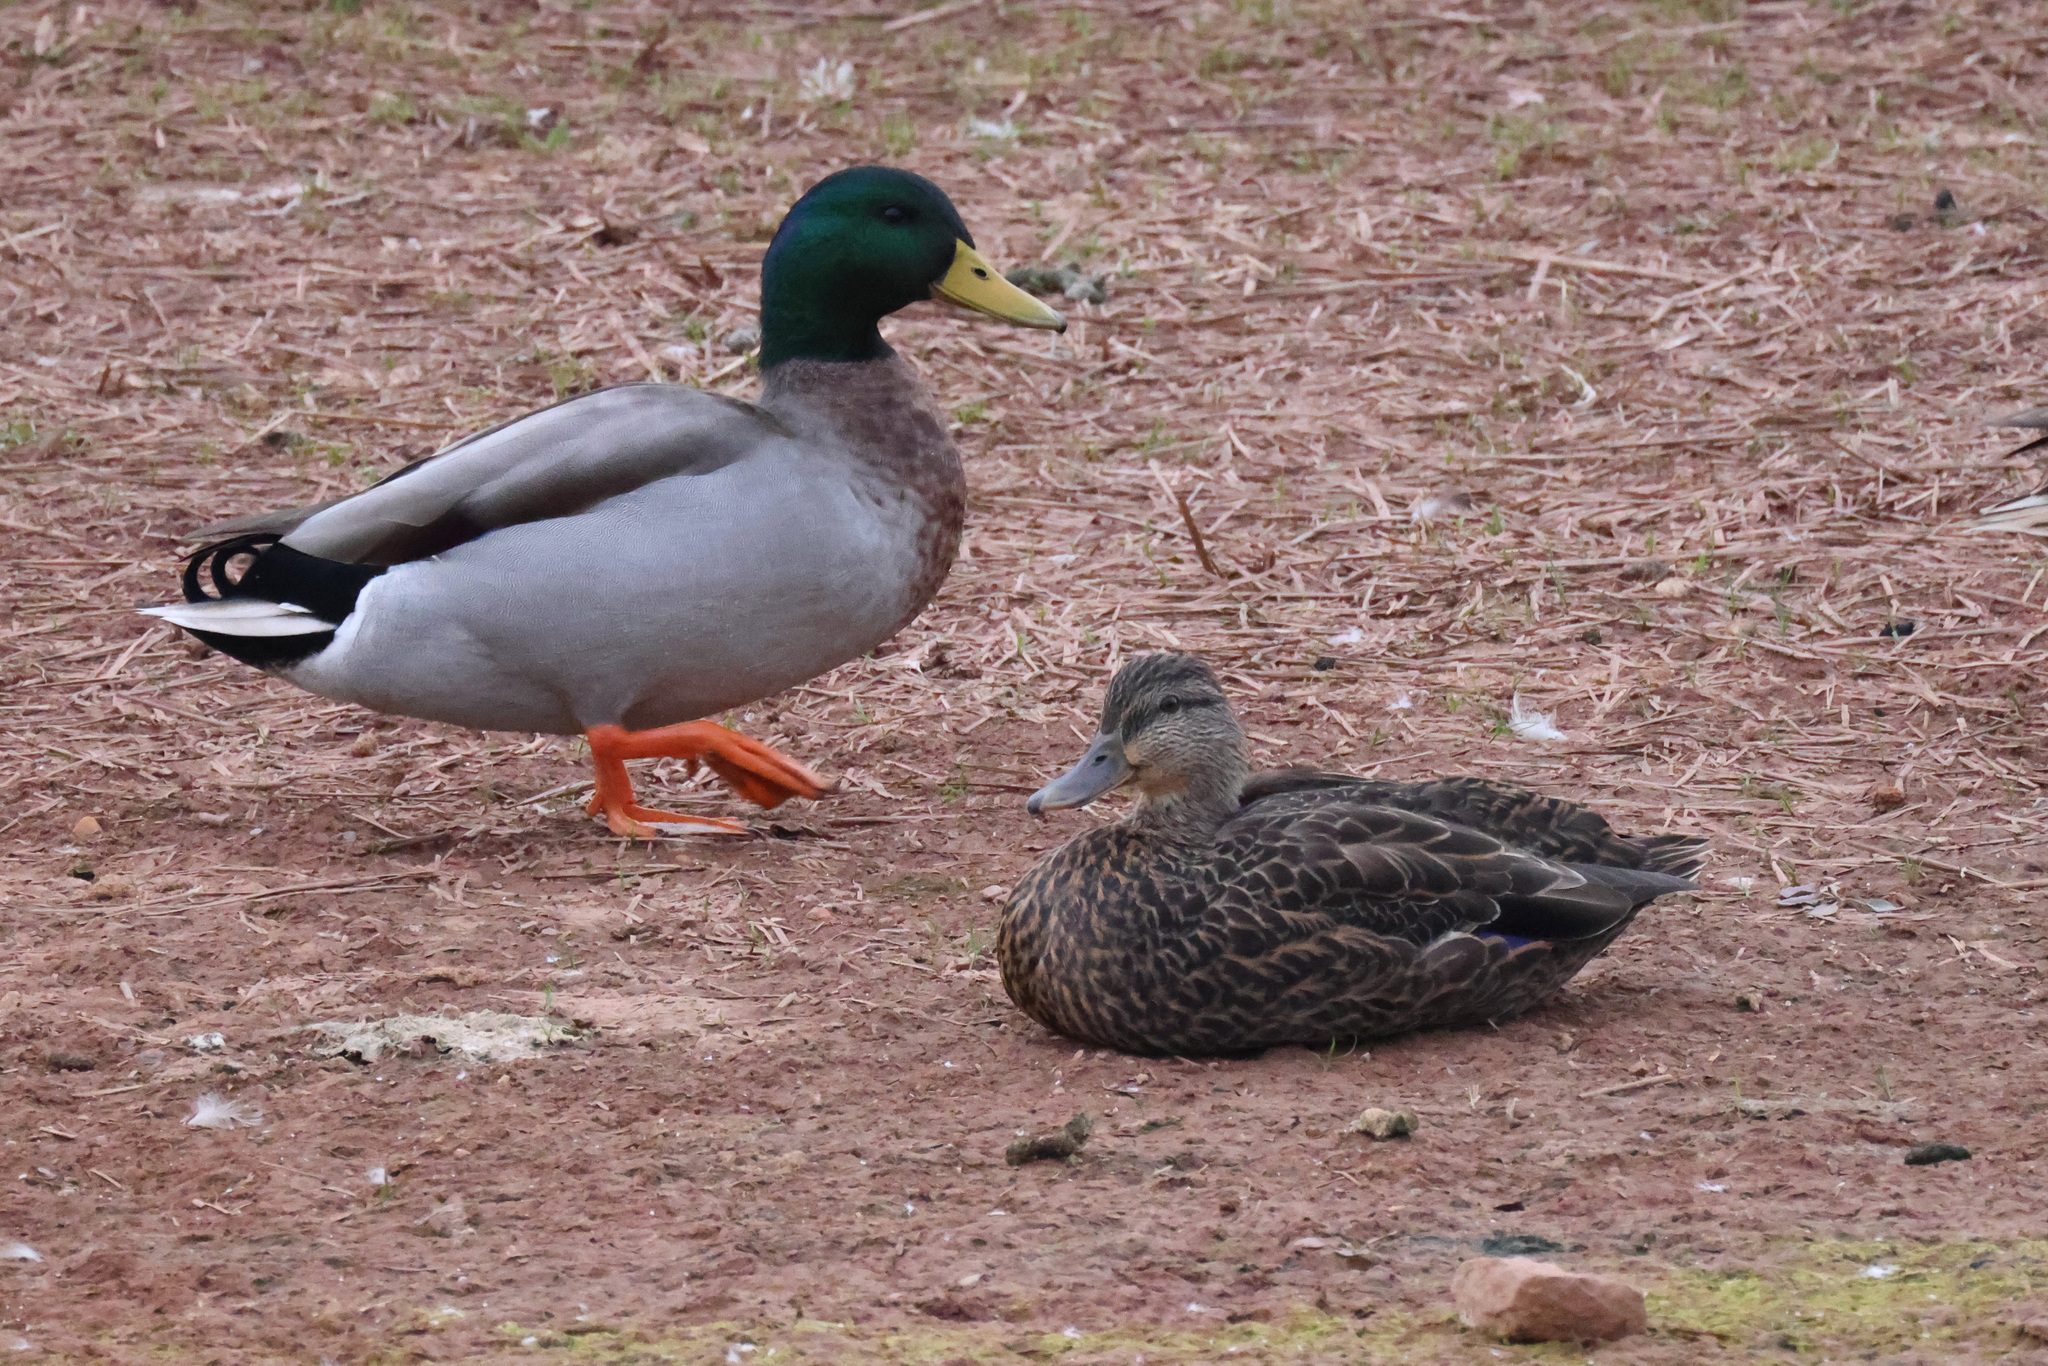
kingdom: Animalia
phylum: Chordata
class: Aves
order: Anseriformes
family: Anatidae
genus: Anas
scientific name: Anas rubripes
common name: American black duck
